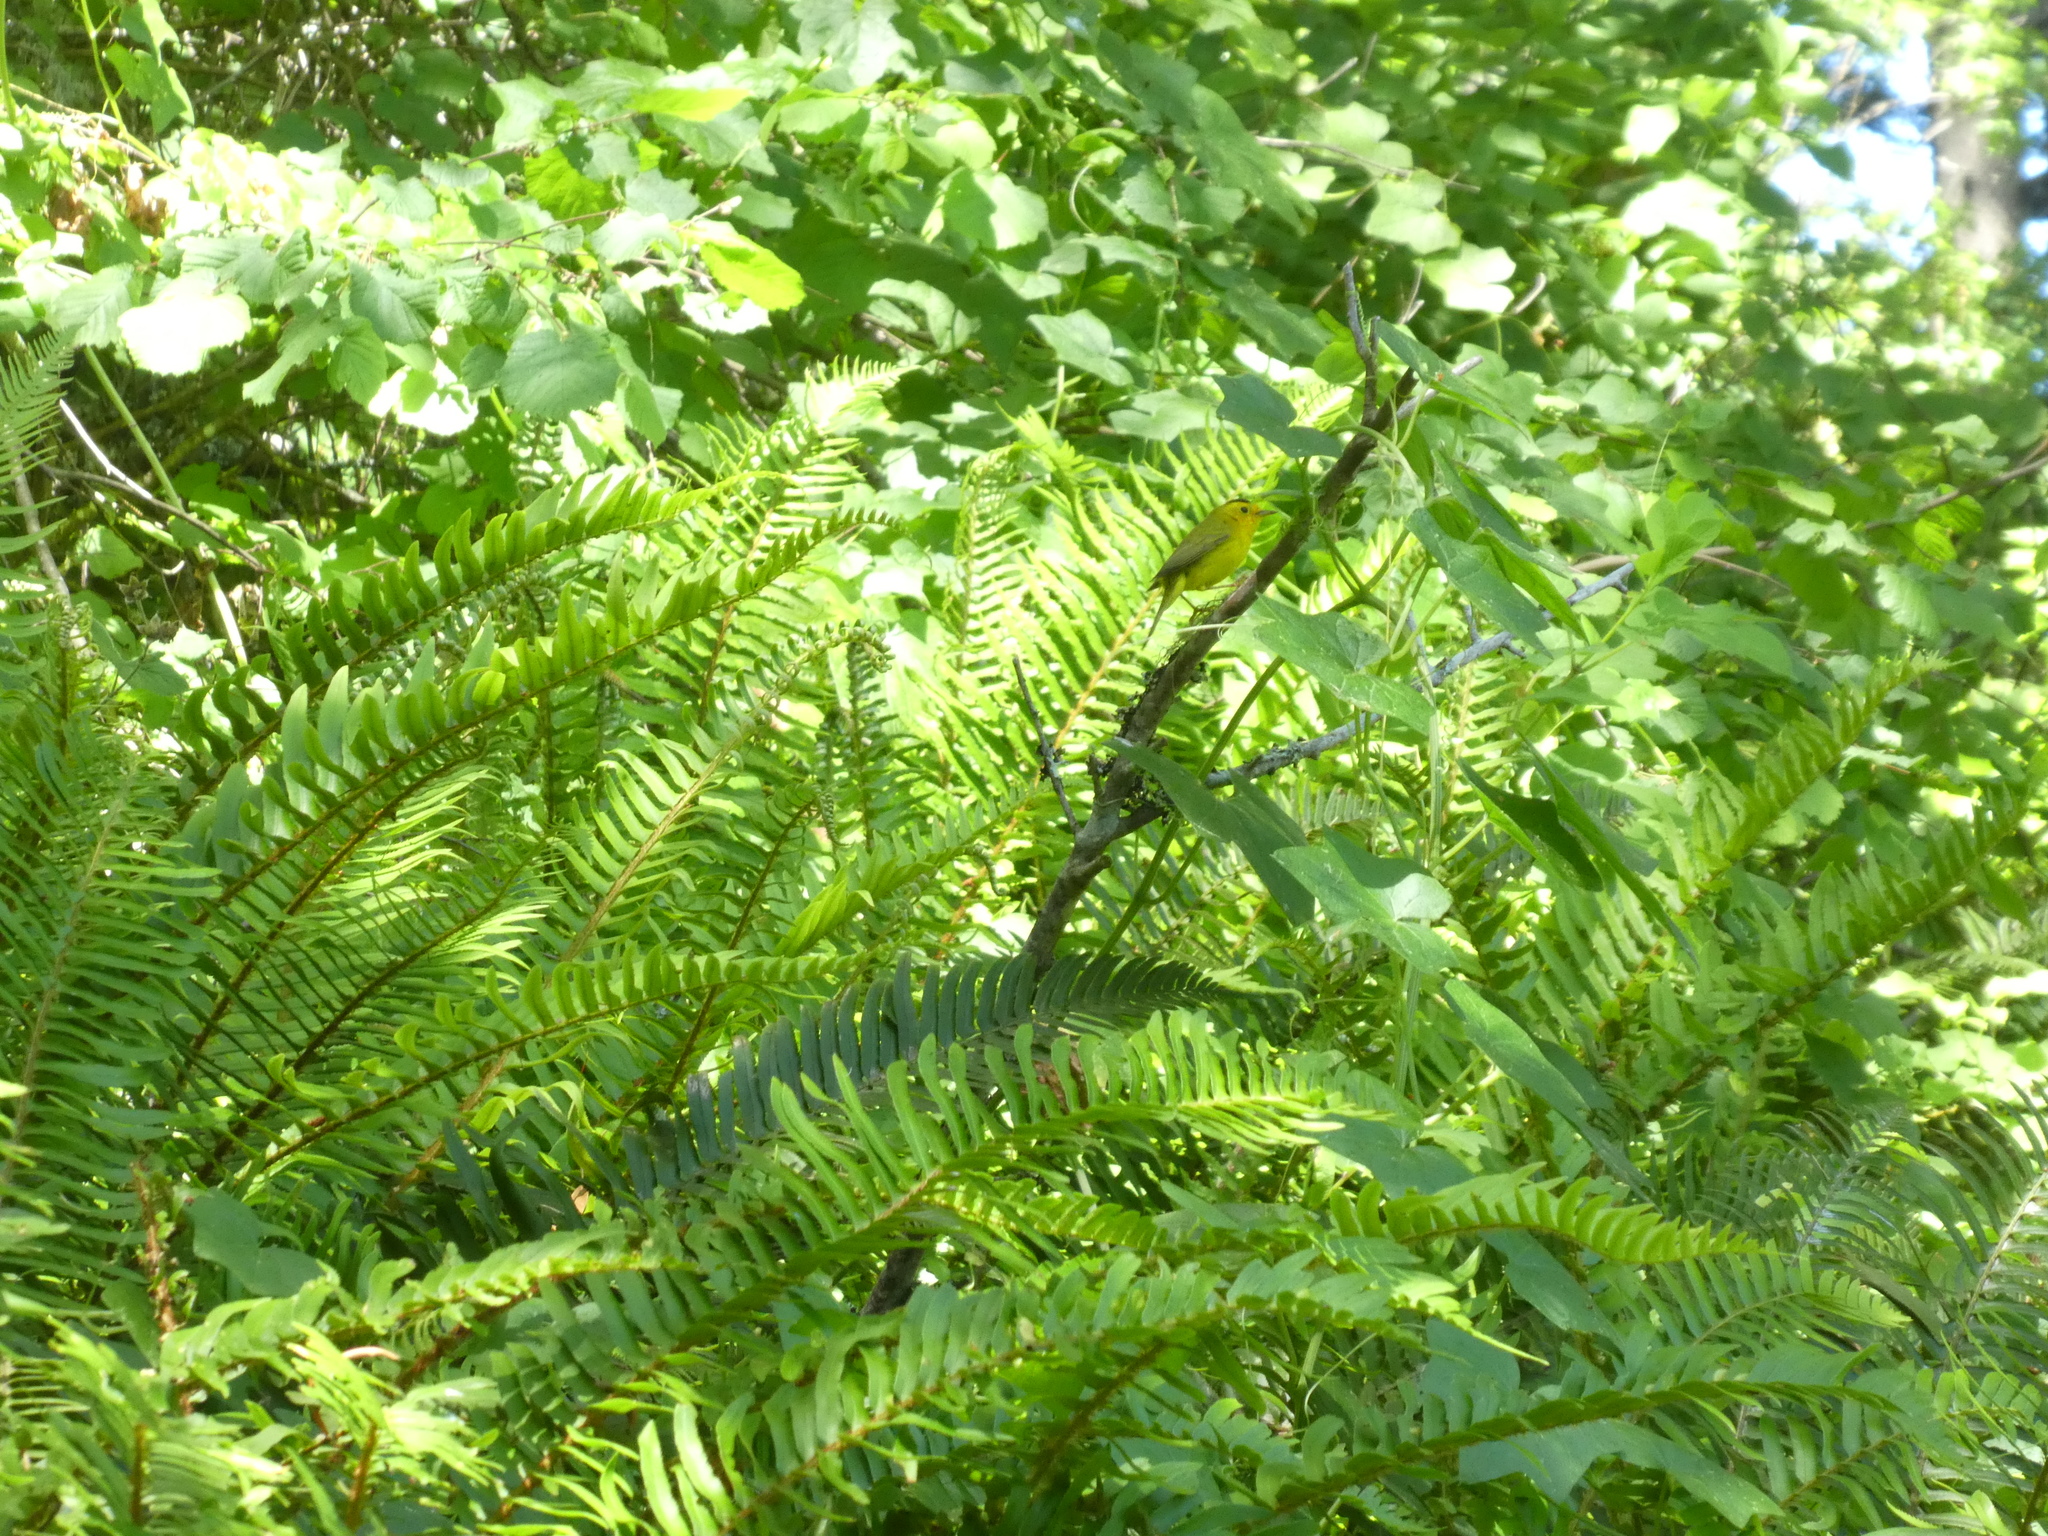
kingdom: Animalia
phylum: Chordata
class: Aves
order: Passeriformes
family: Parulidae
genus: Cardellina
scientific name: Cardellina pusilla
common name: Wilson's warbler
